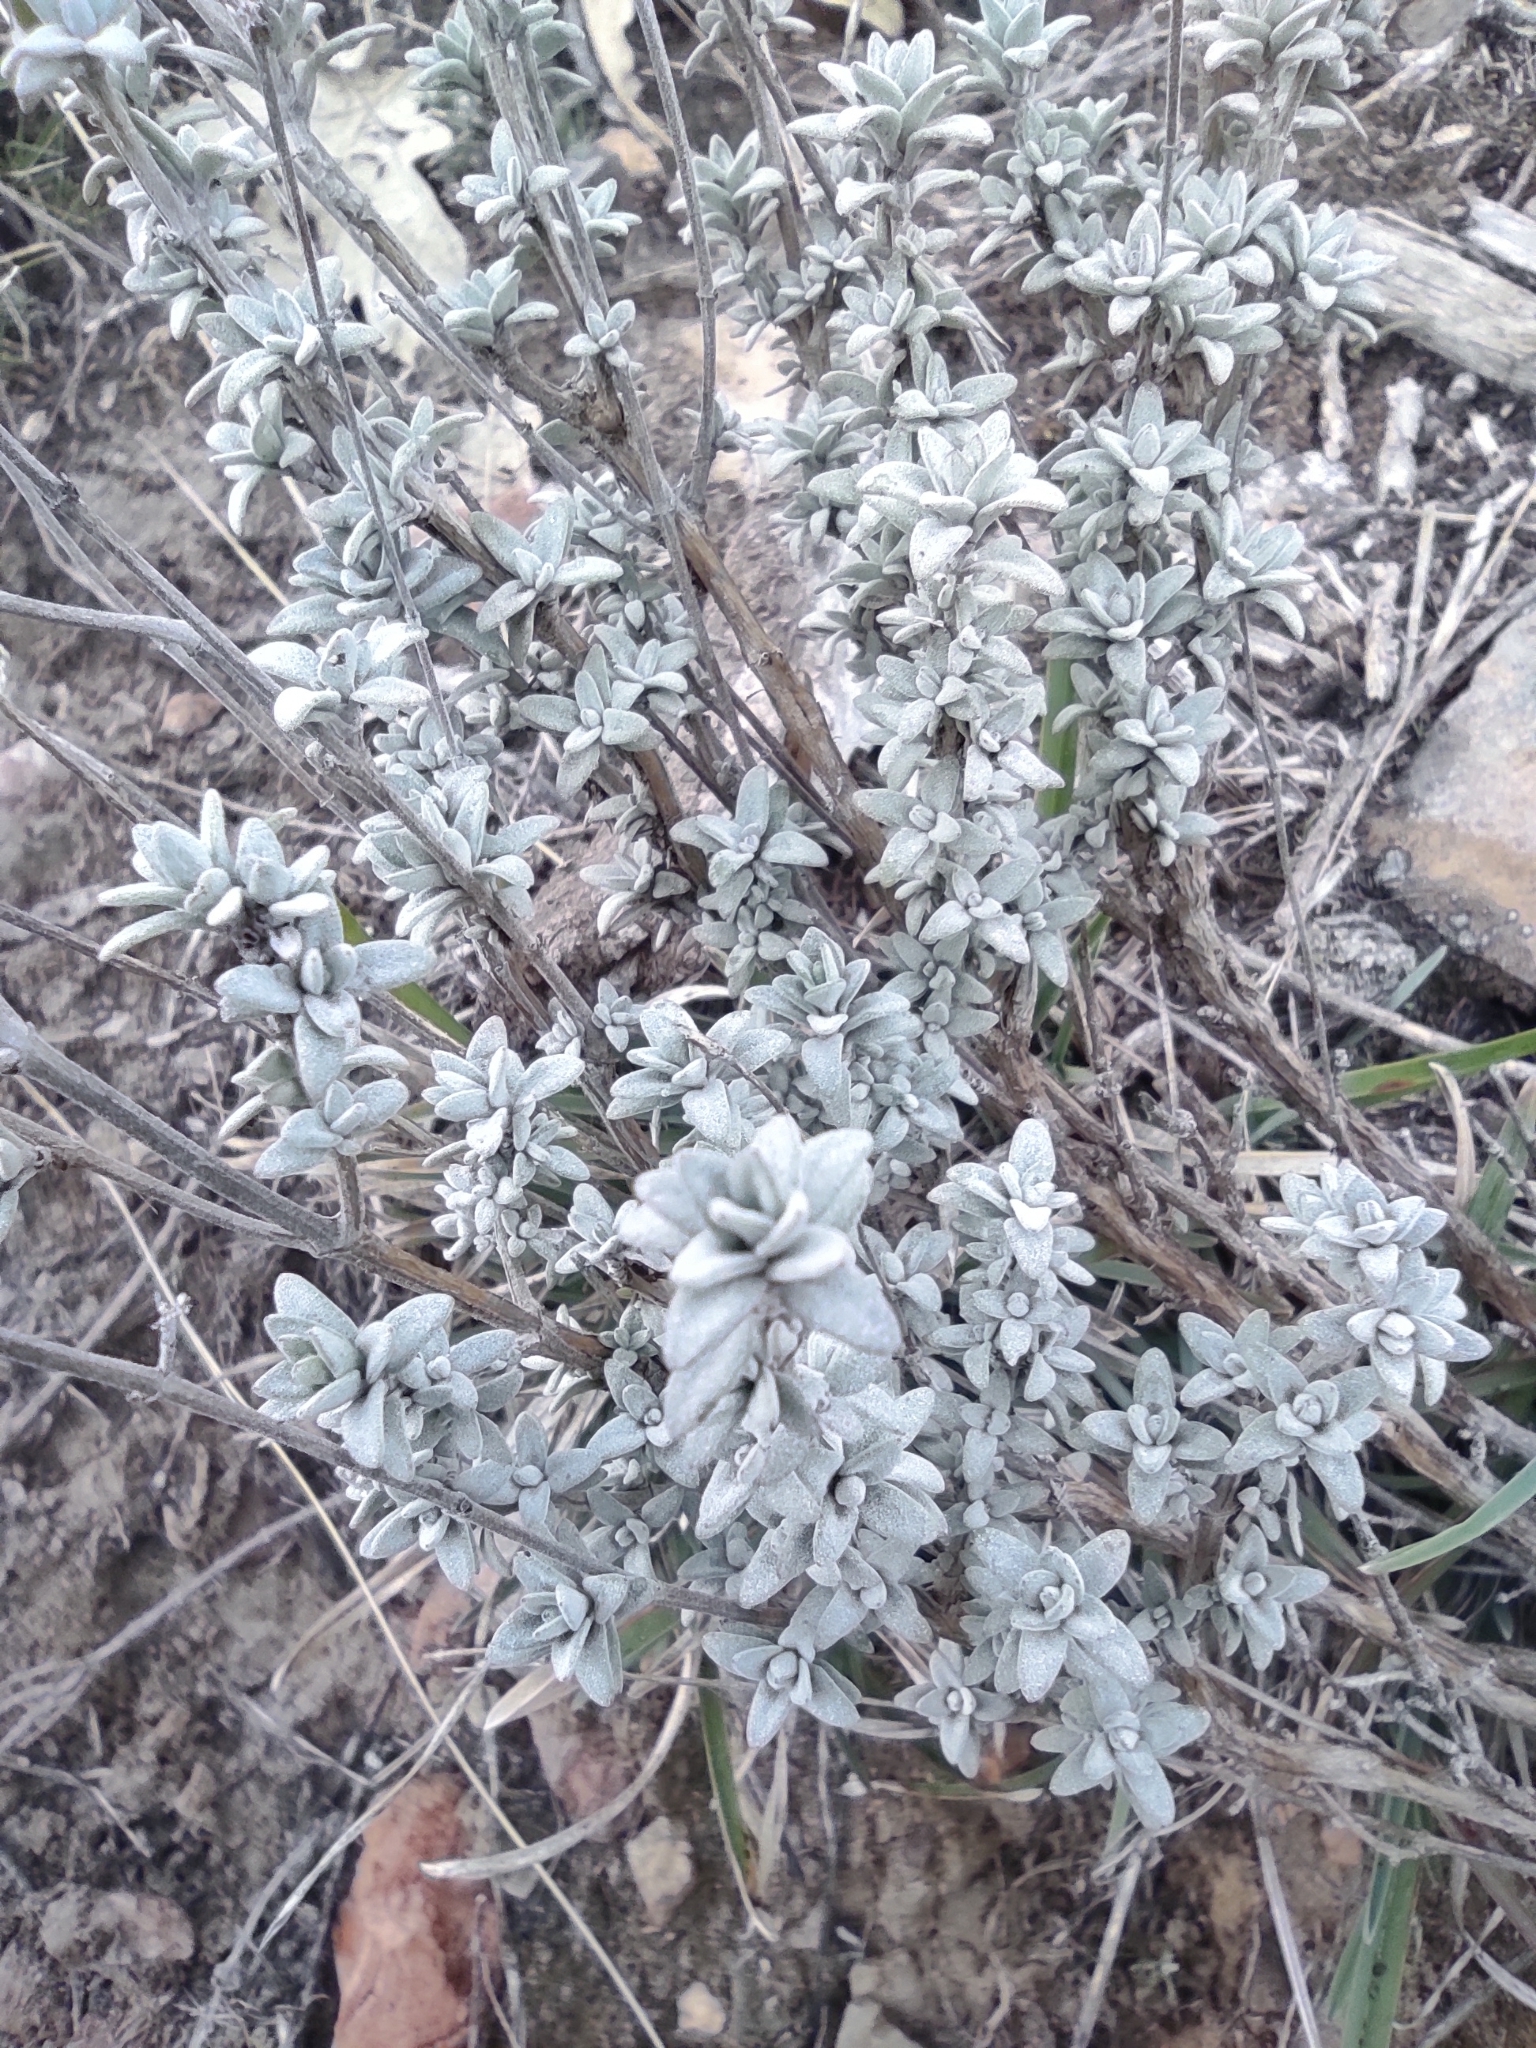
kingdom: Plantae
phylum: Tracheophyta
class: Magnoliopsida
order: Lamiales
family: Lamiaceae
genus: Thymus
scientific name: Thymus mastichina
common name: Mastic thyme
